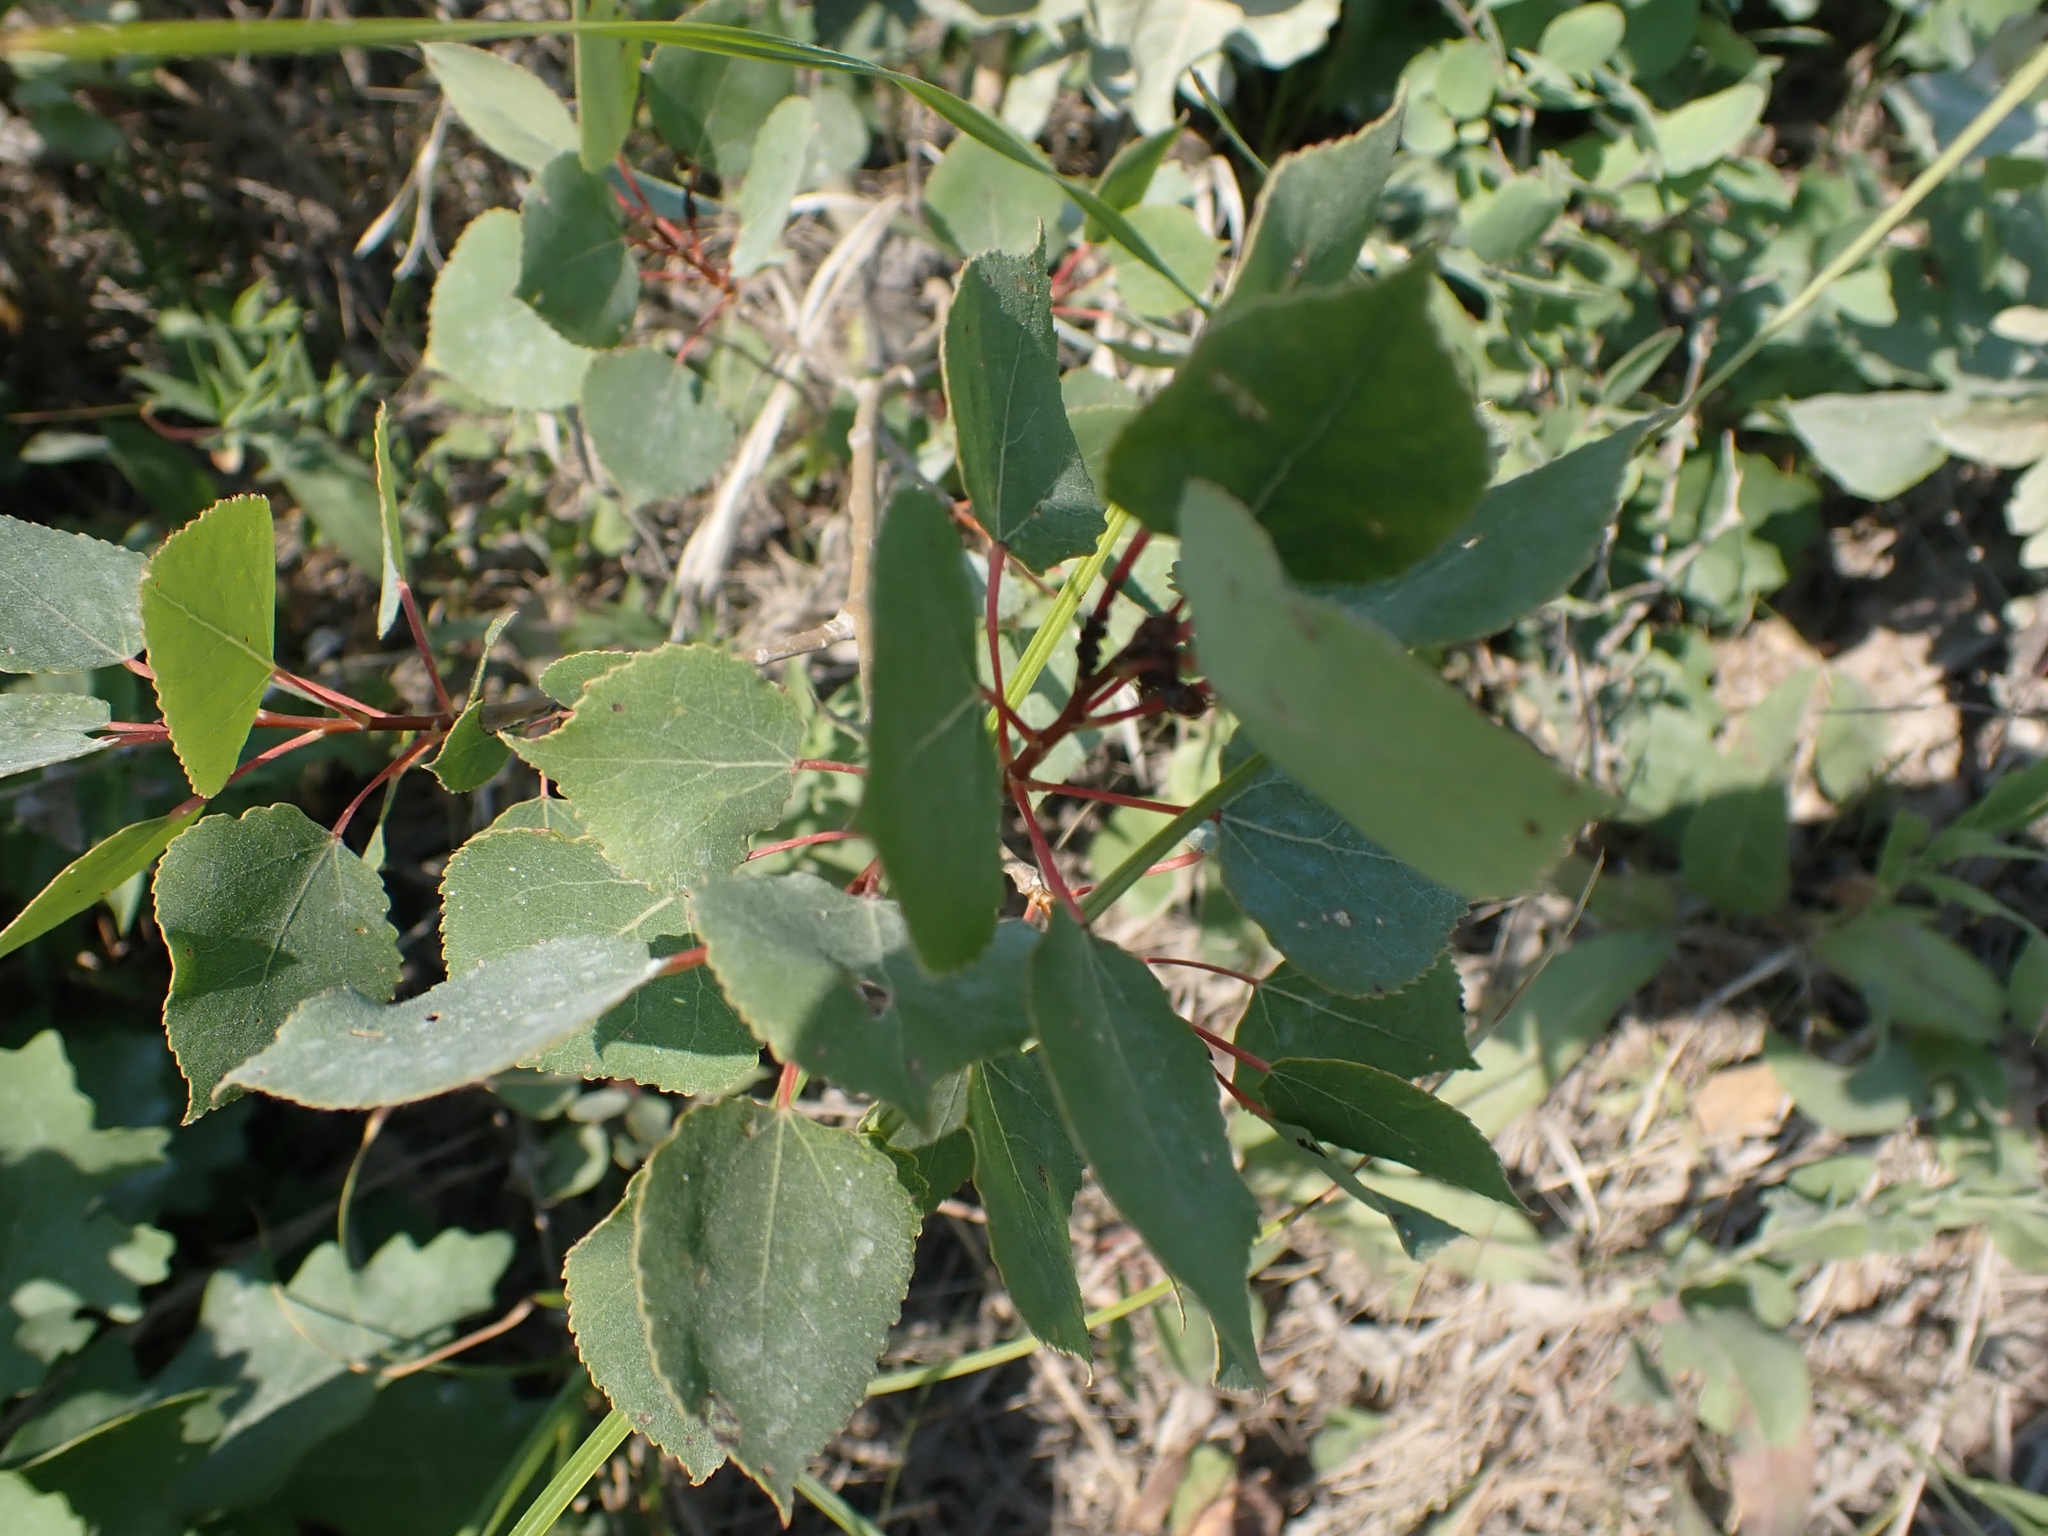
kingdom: Plantae
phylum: Tracheophyta
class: Magnoliopsida
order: Malpighiales
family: Salicaceae
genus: Populus
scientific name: Populus tremuloides
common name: Quaking aspen
